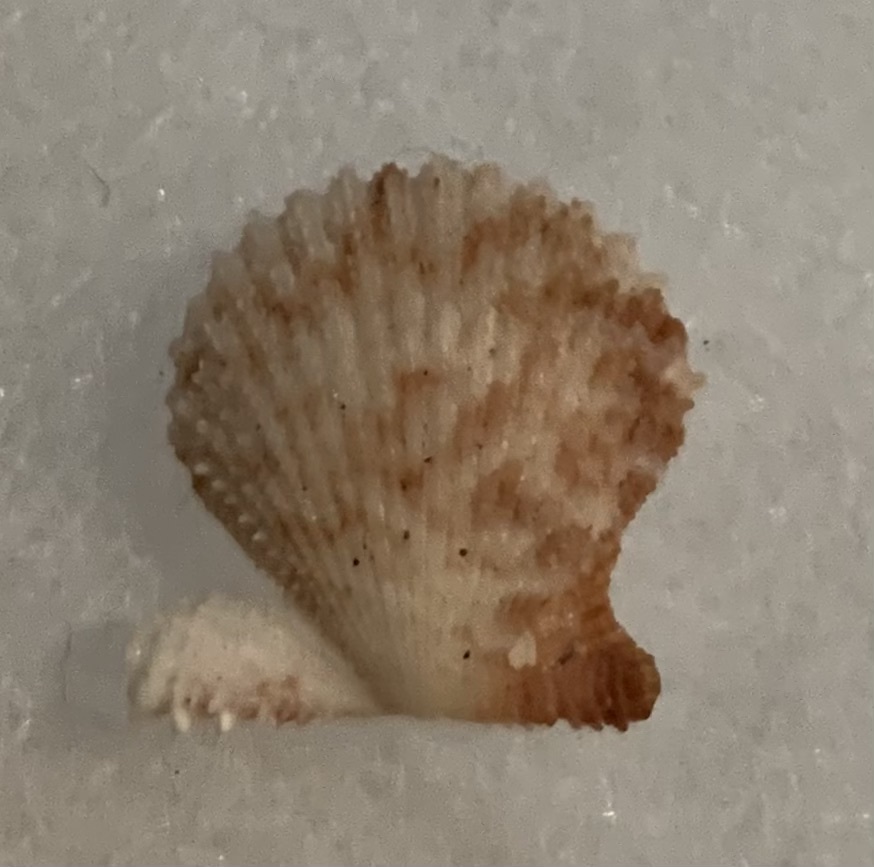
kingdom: Animalia
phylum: Mollusca
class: Bivalvia
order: Pectinida
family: Pectinidae
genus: Lindapecten
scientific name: Lindapecten muscosus
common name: Rough scallop
